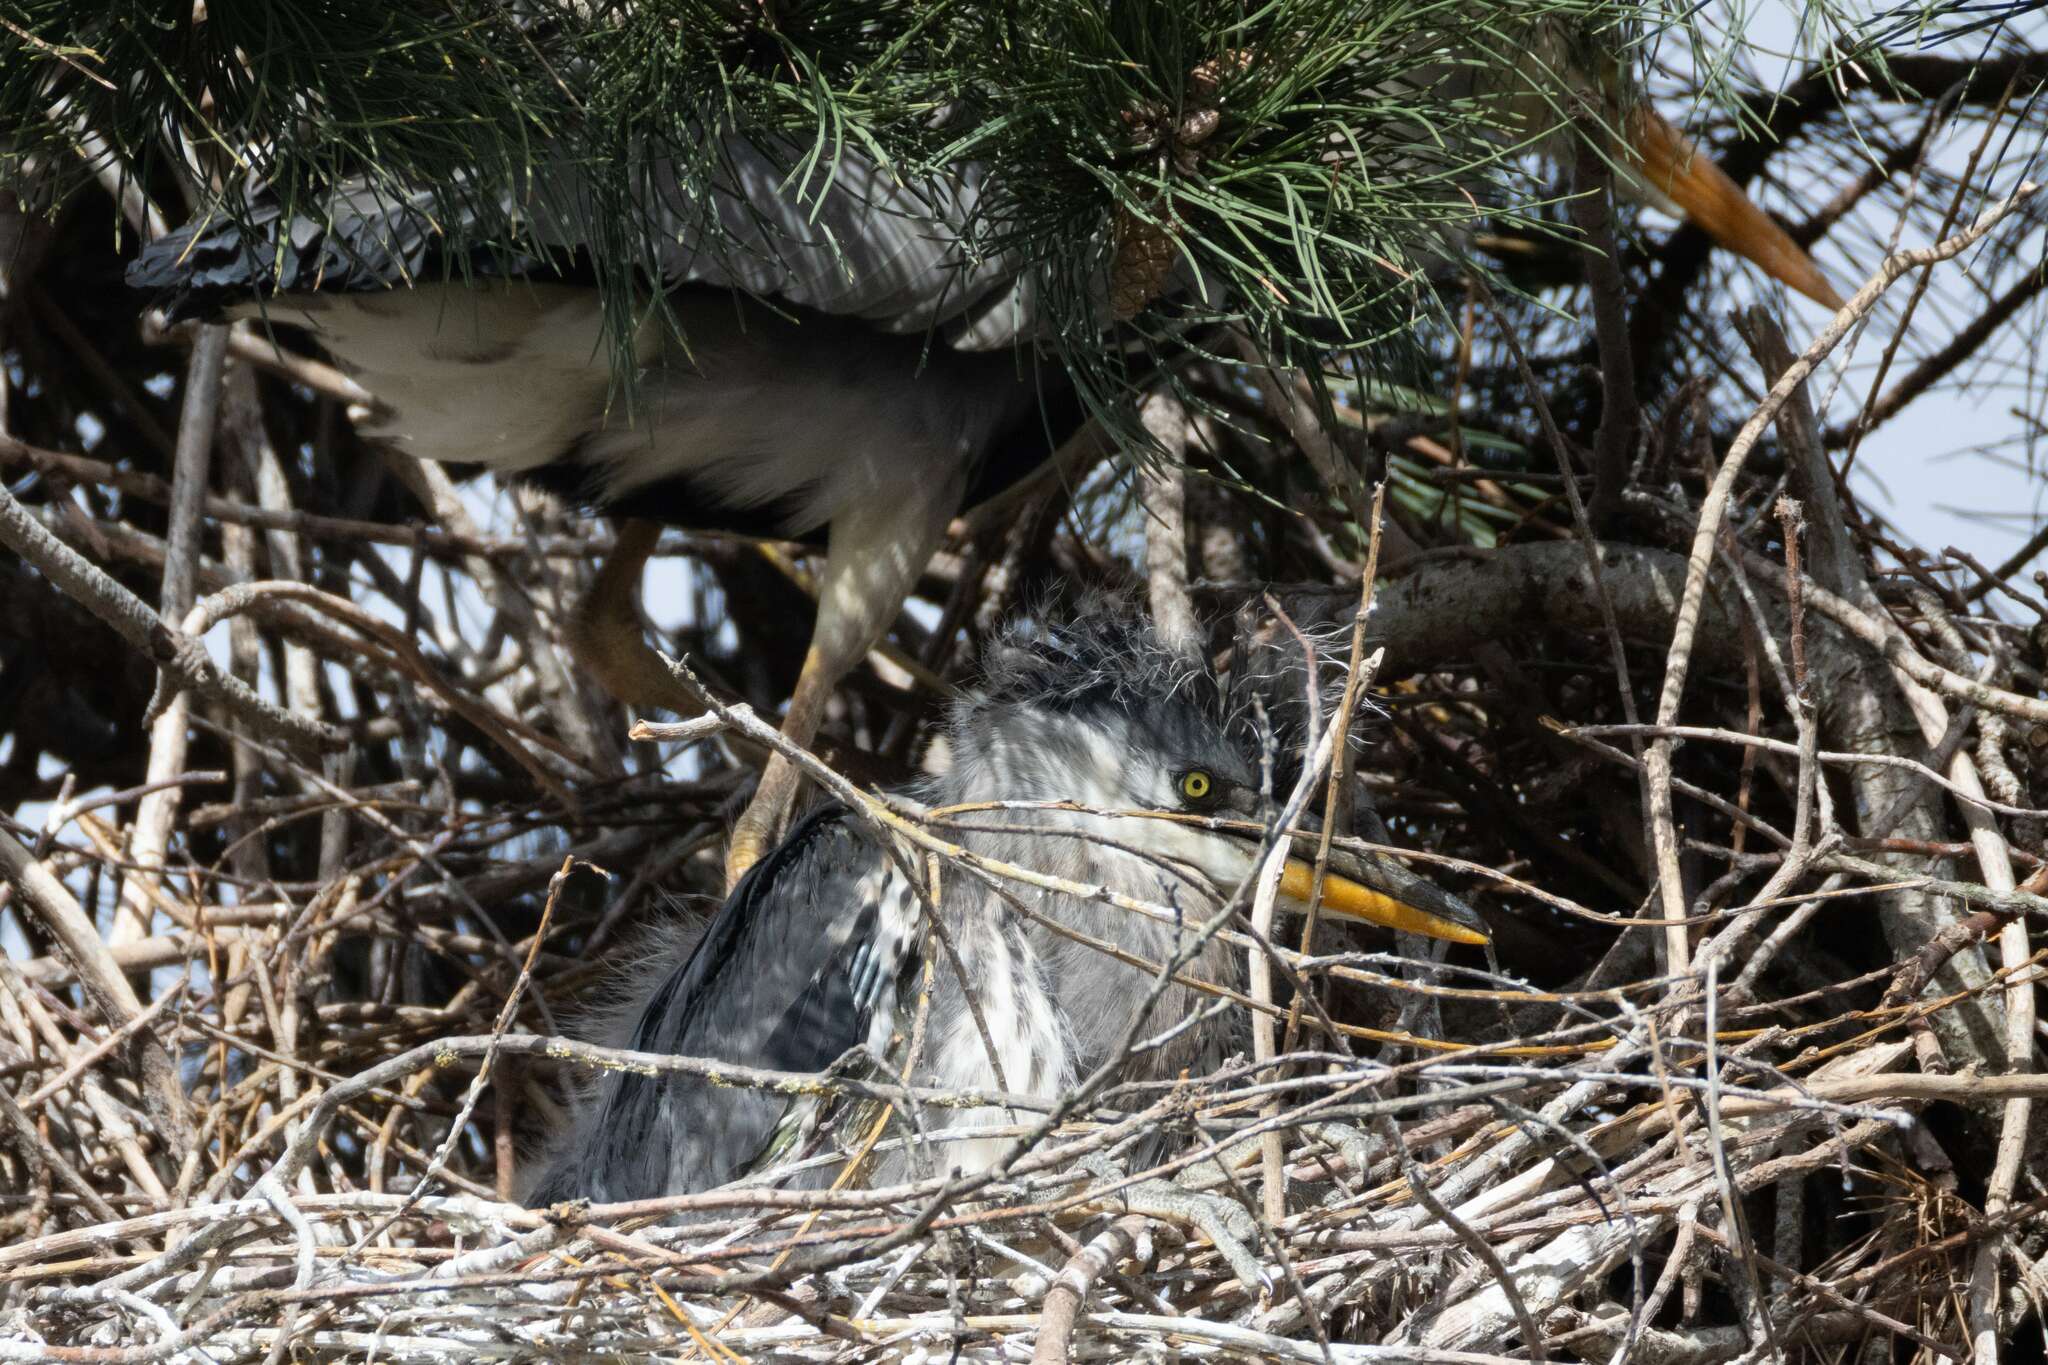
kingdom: Animalia
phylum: Chordata
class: Aves
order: Pelecaniformes
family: Ardeidae
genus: Ardea
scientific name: Ardea cinerea
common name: Grey heron
